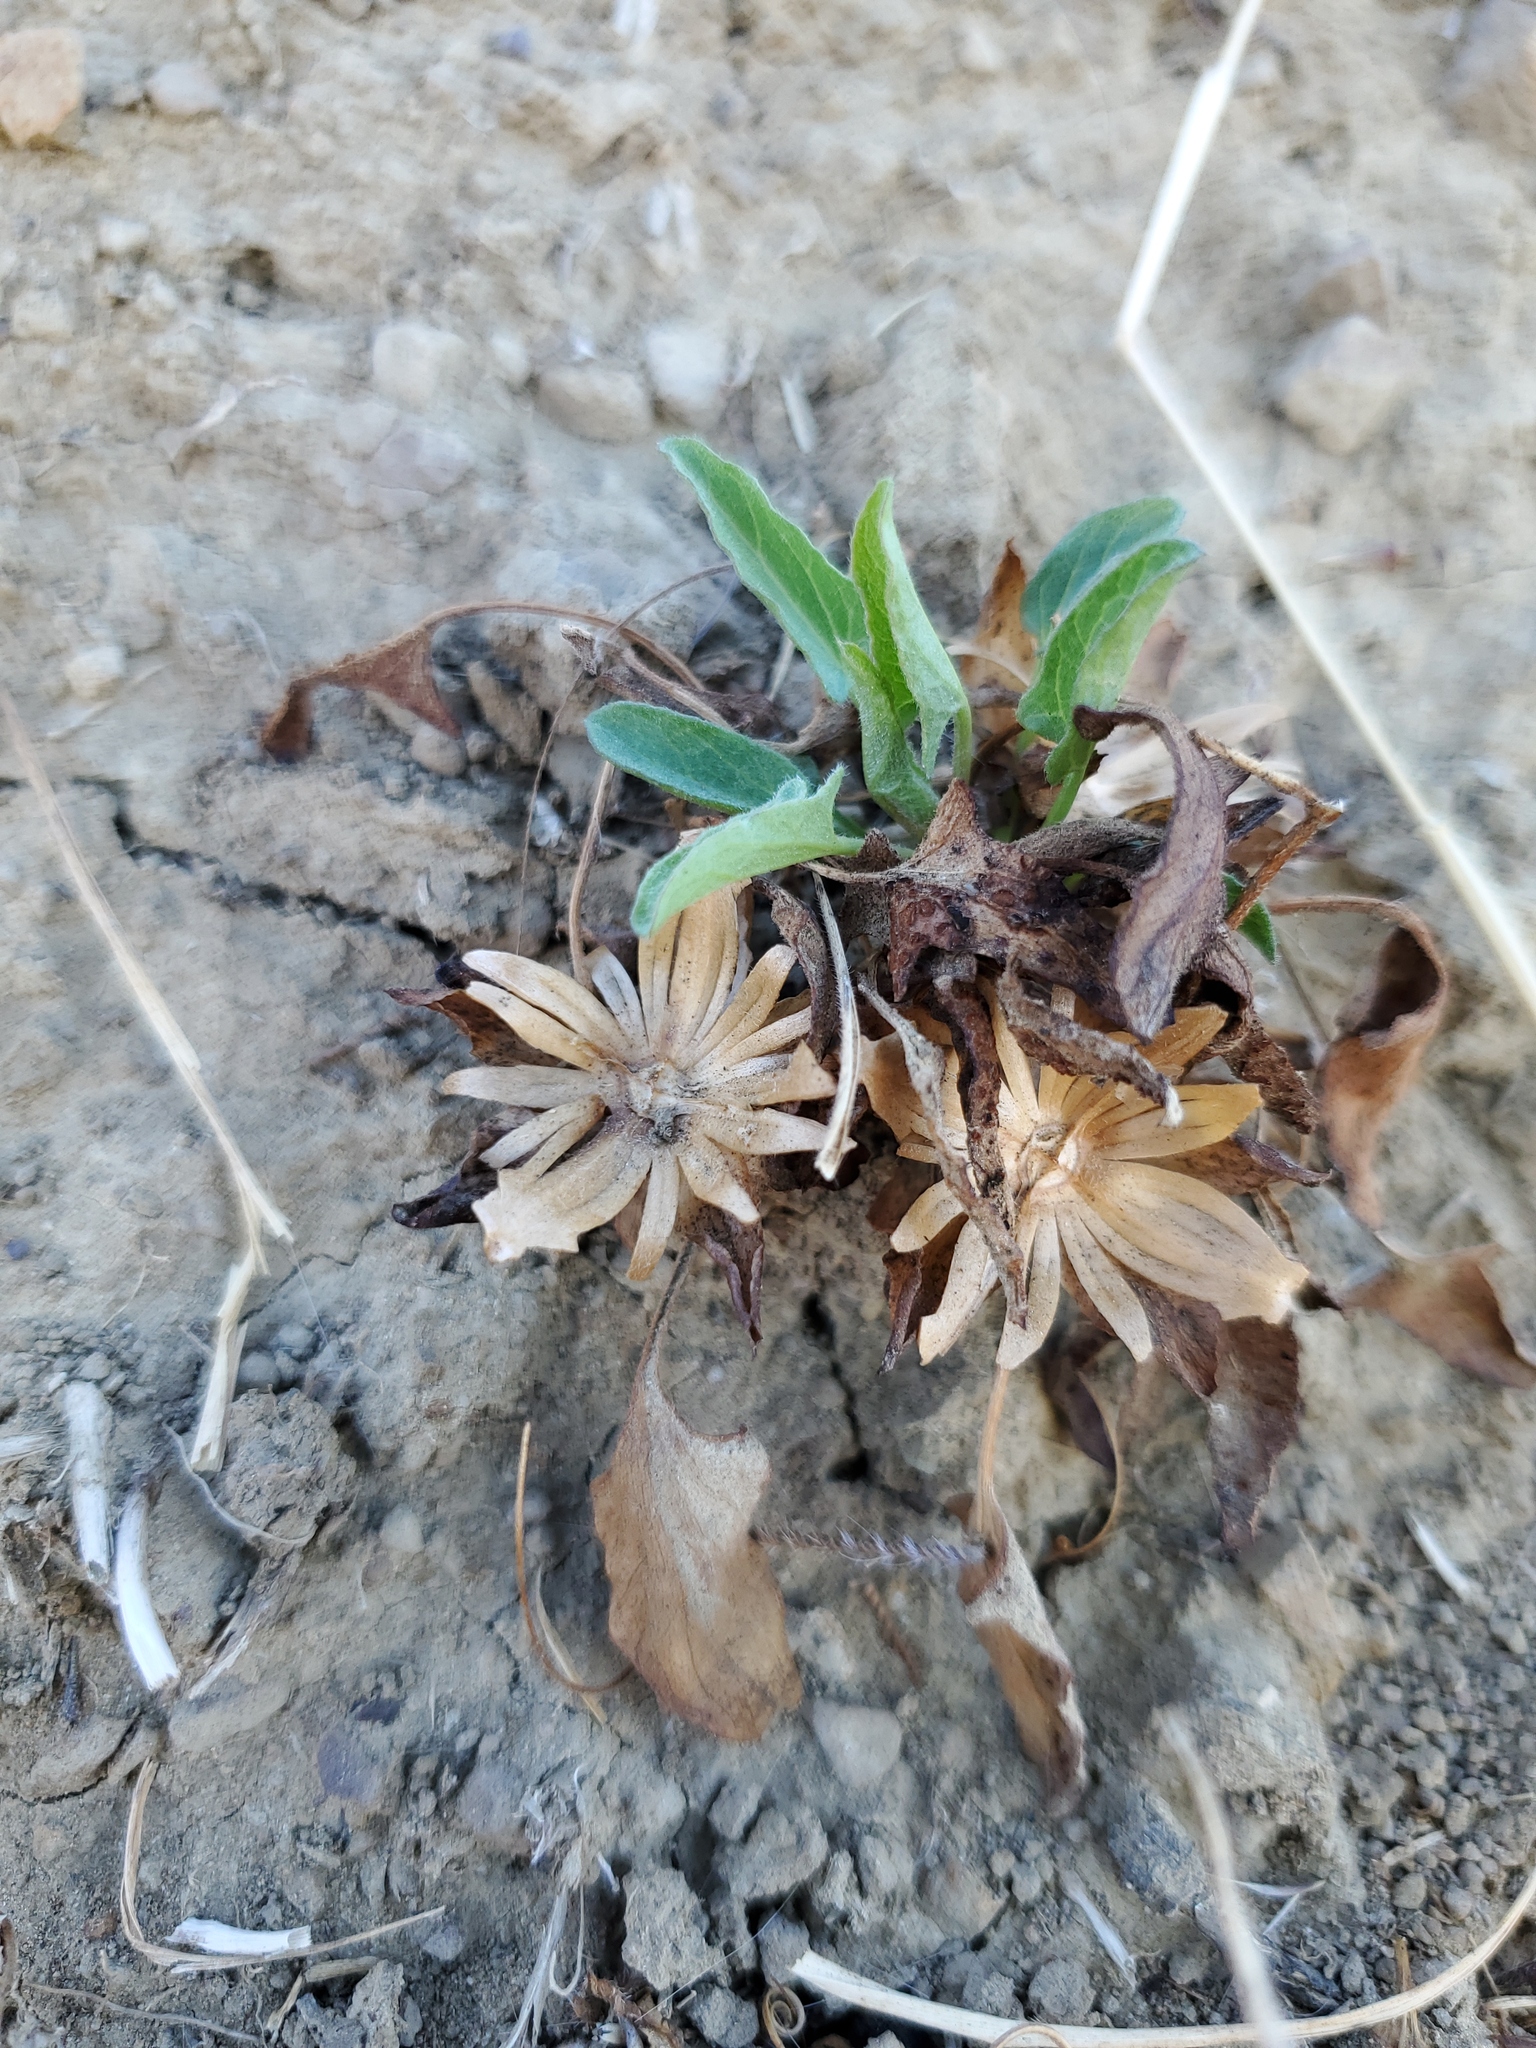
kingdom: Plantae
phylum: Tracheophyta
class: Magnoliopsida
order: Solanales
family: Convolvulaceae
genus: Calystegia
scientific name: Calystegia subacaulis
